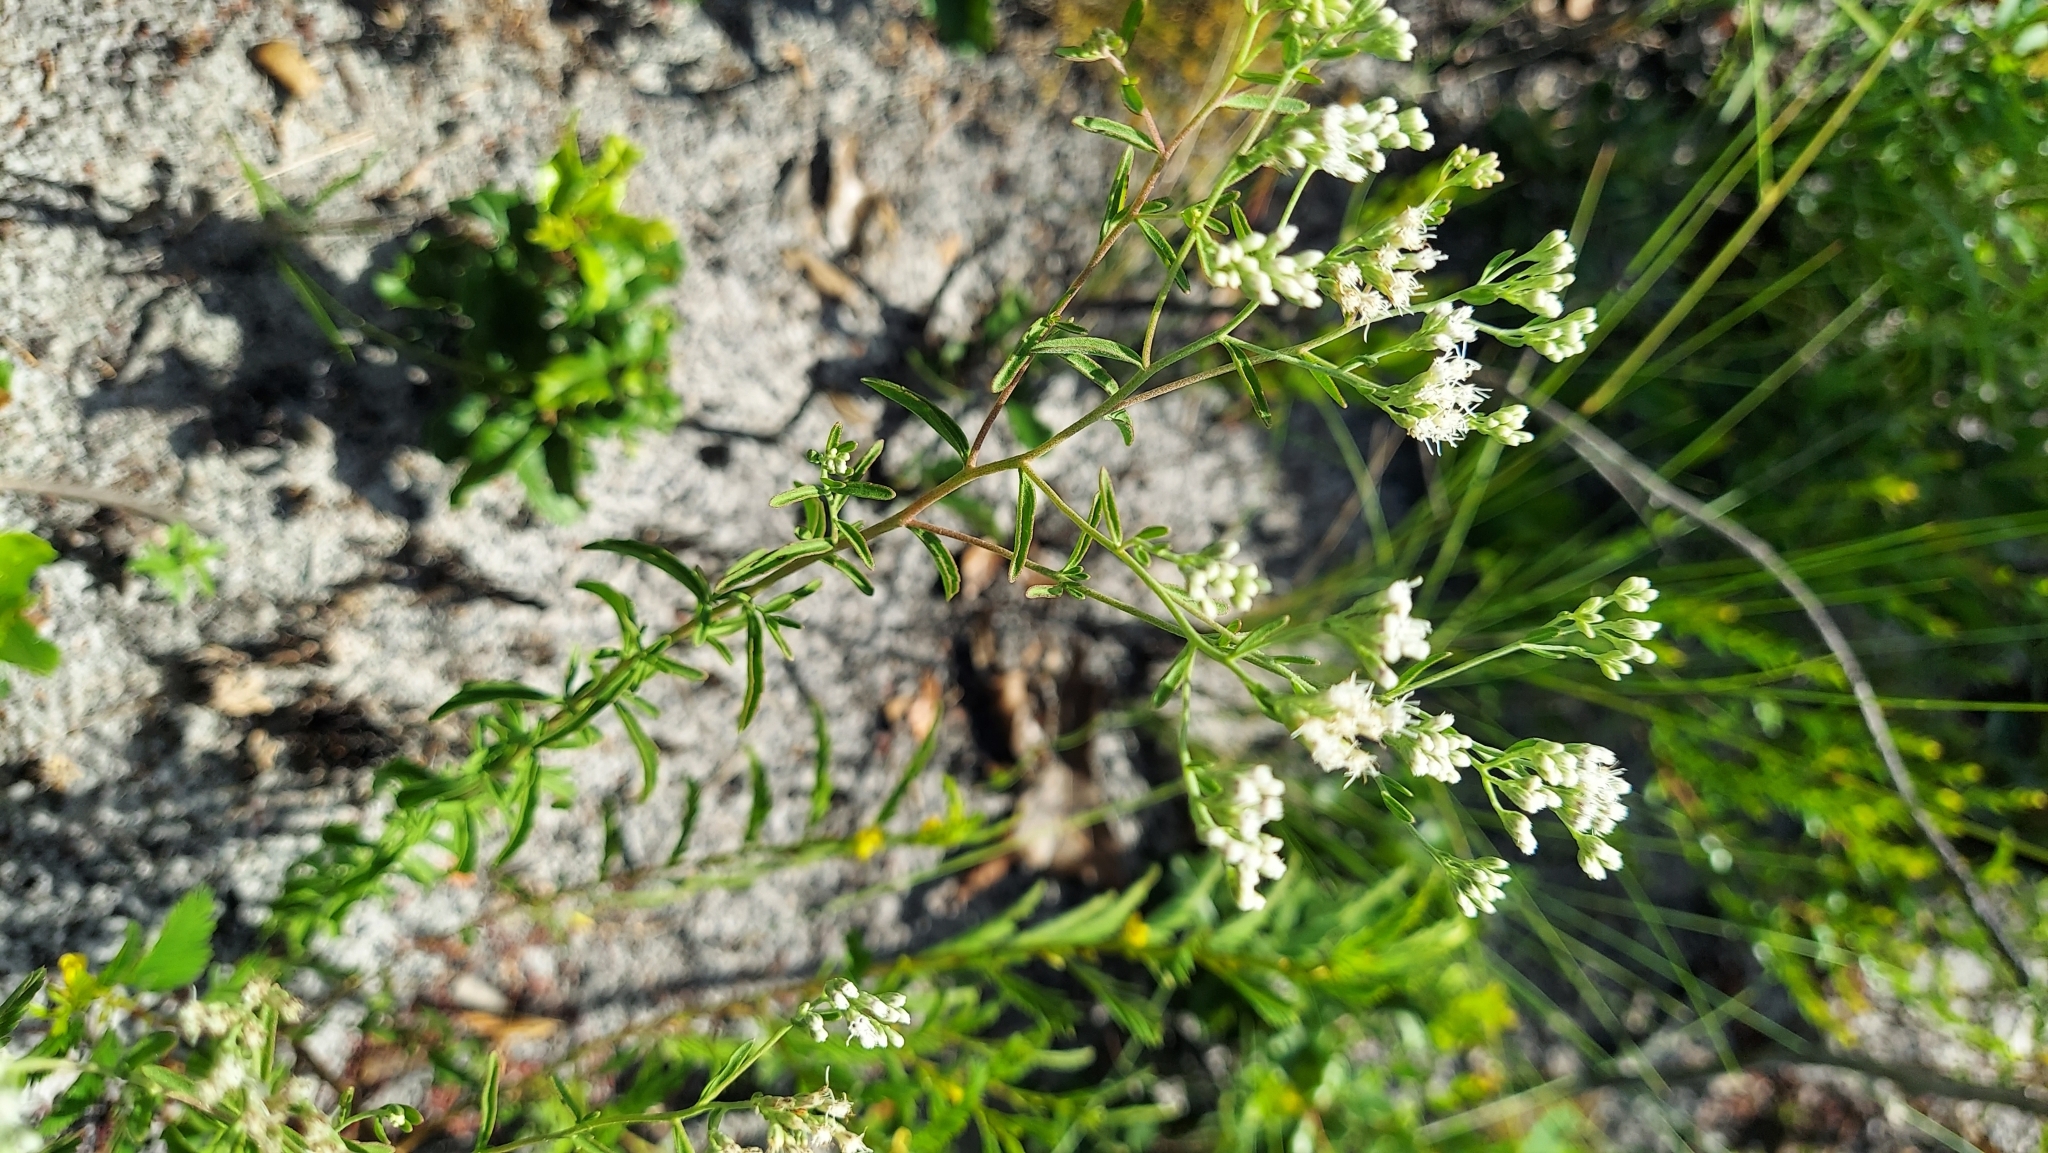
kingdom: Plantae
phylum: Tracheophyta
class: Magnoliopsida
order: Asterales
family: Asteraceae
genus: Eupatorium
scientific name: Eupatorium mohrii
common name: Mohr's thoroughwort
